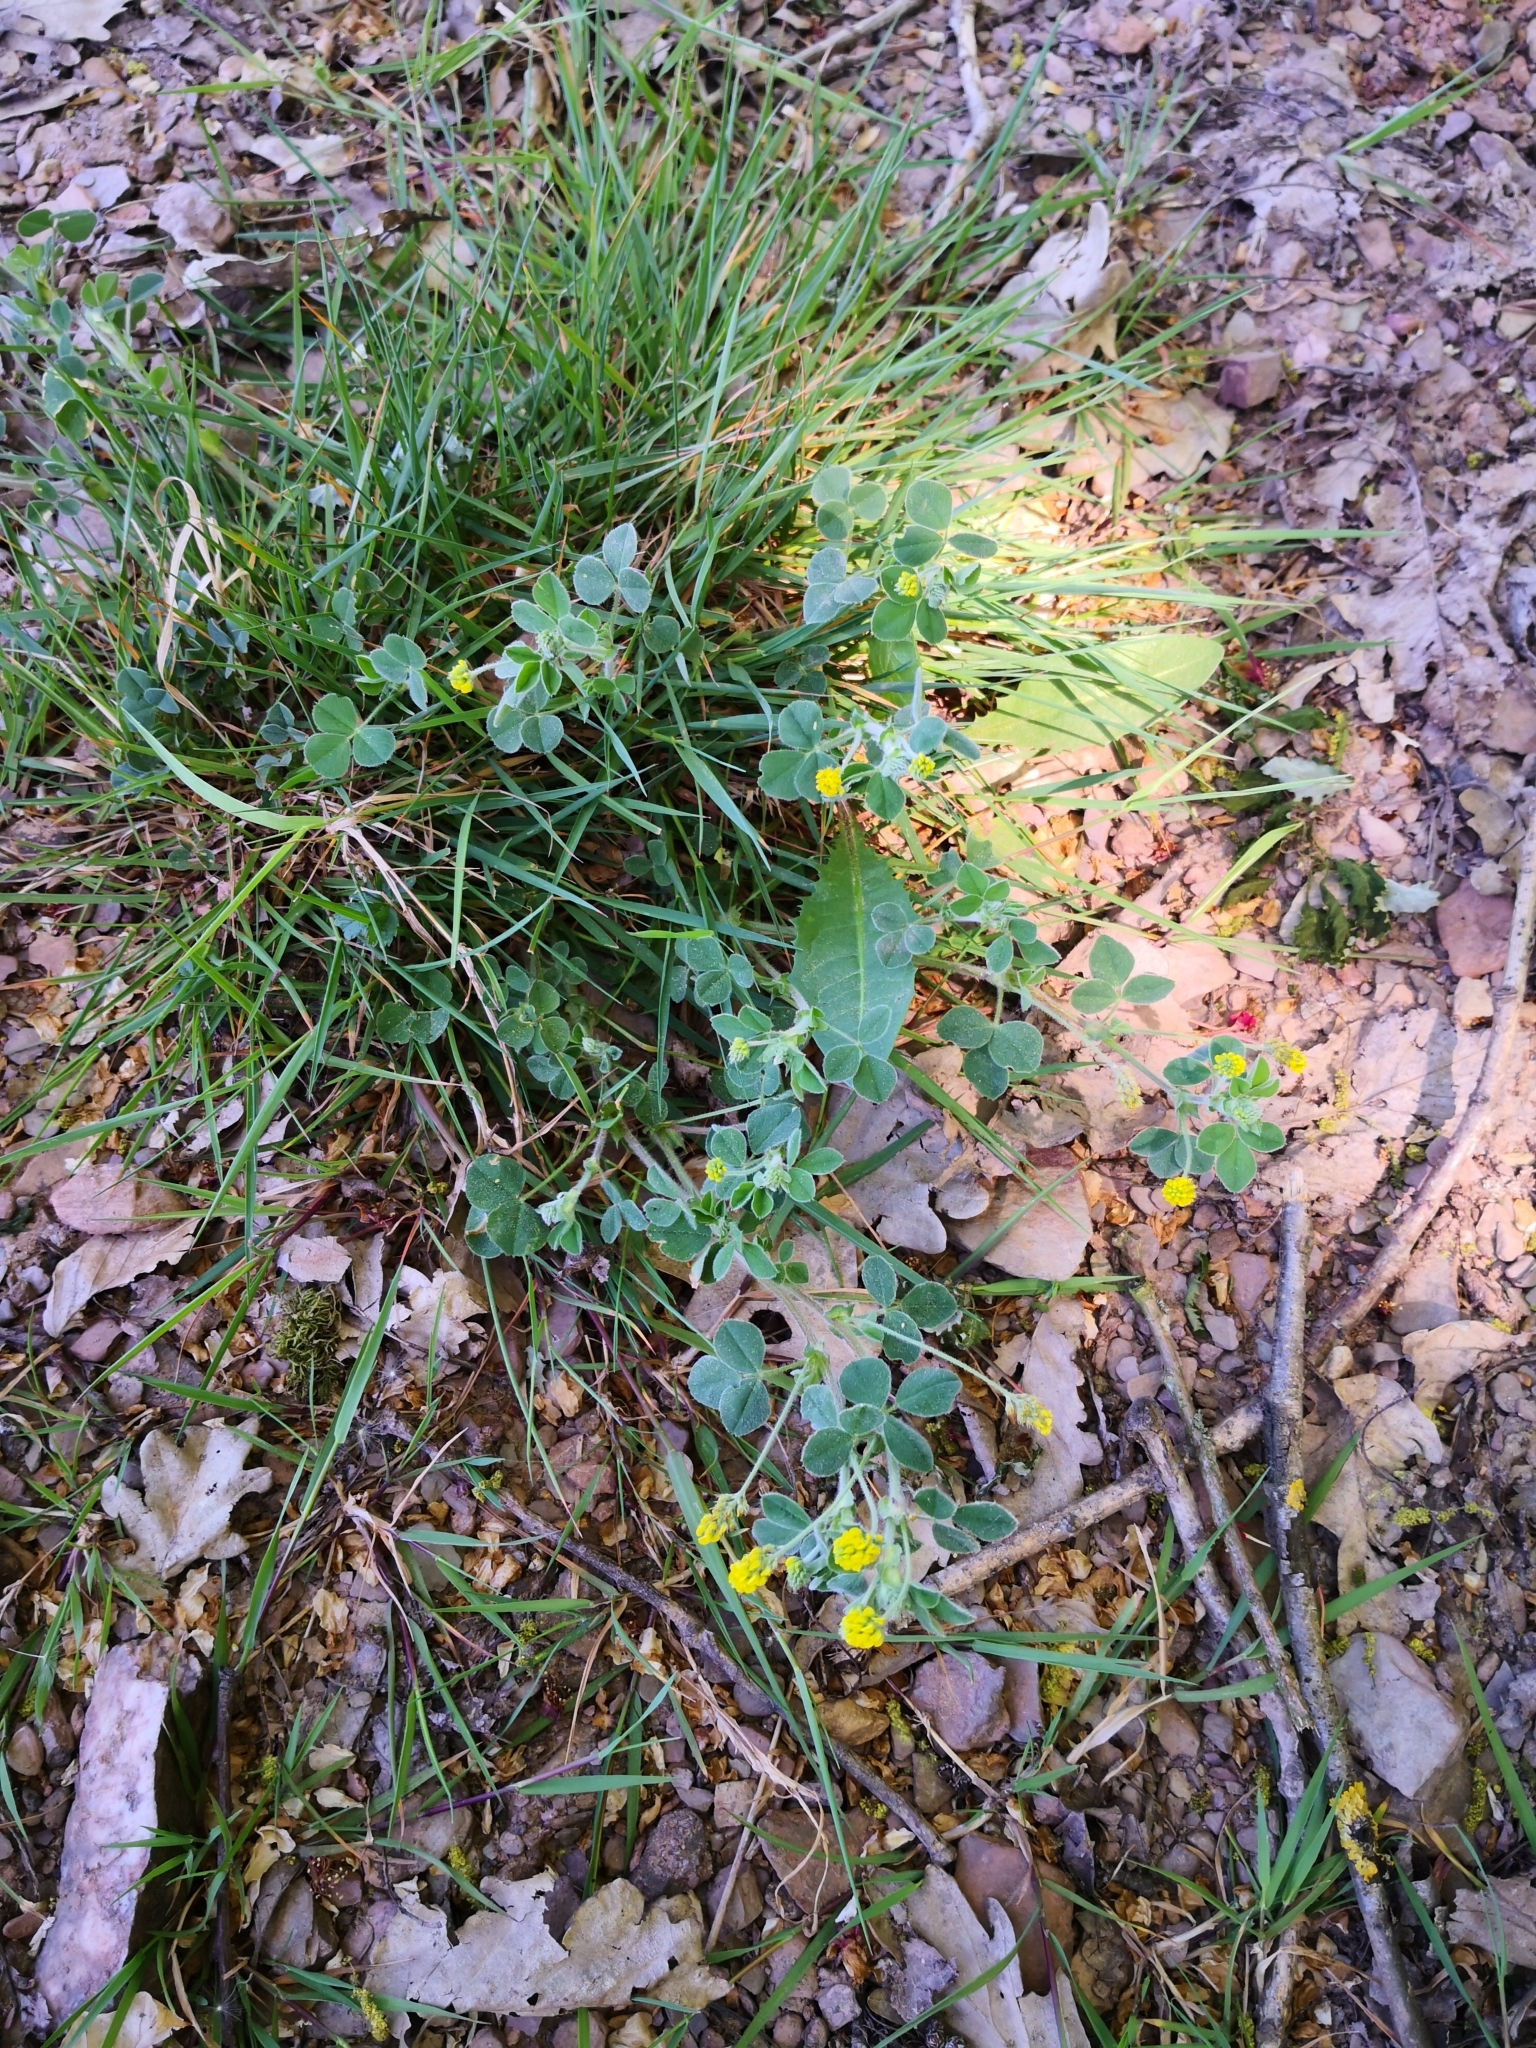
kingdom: Plantae
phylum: Tracheophyta
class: Magnoliopsida
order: Fabales
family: Fabaceae
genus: Medicago
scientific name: Medicago lupulina
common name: Black medick
